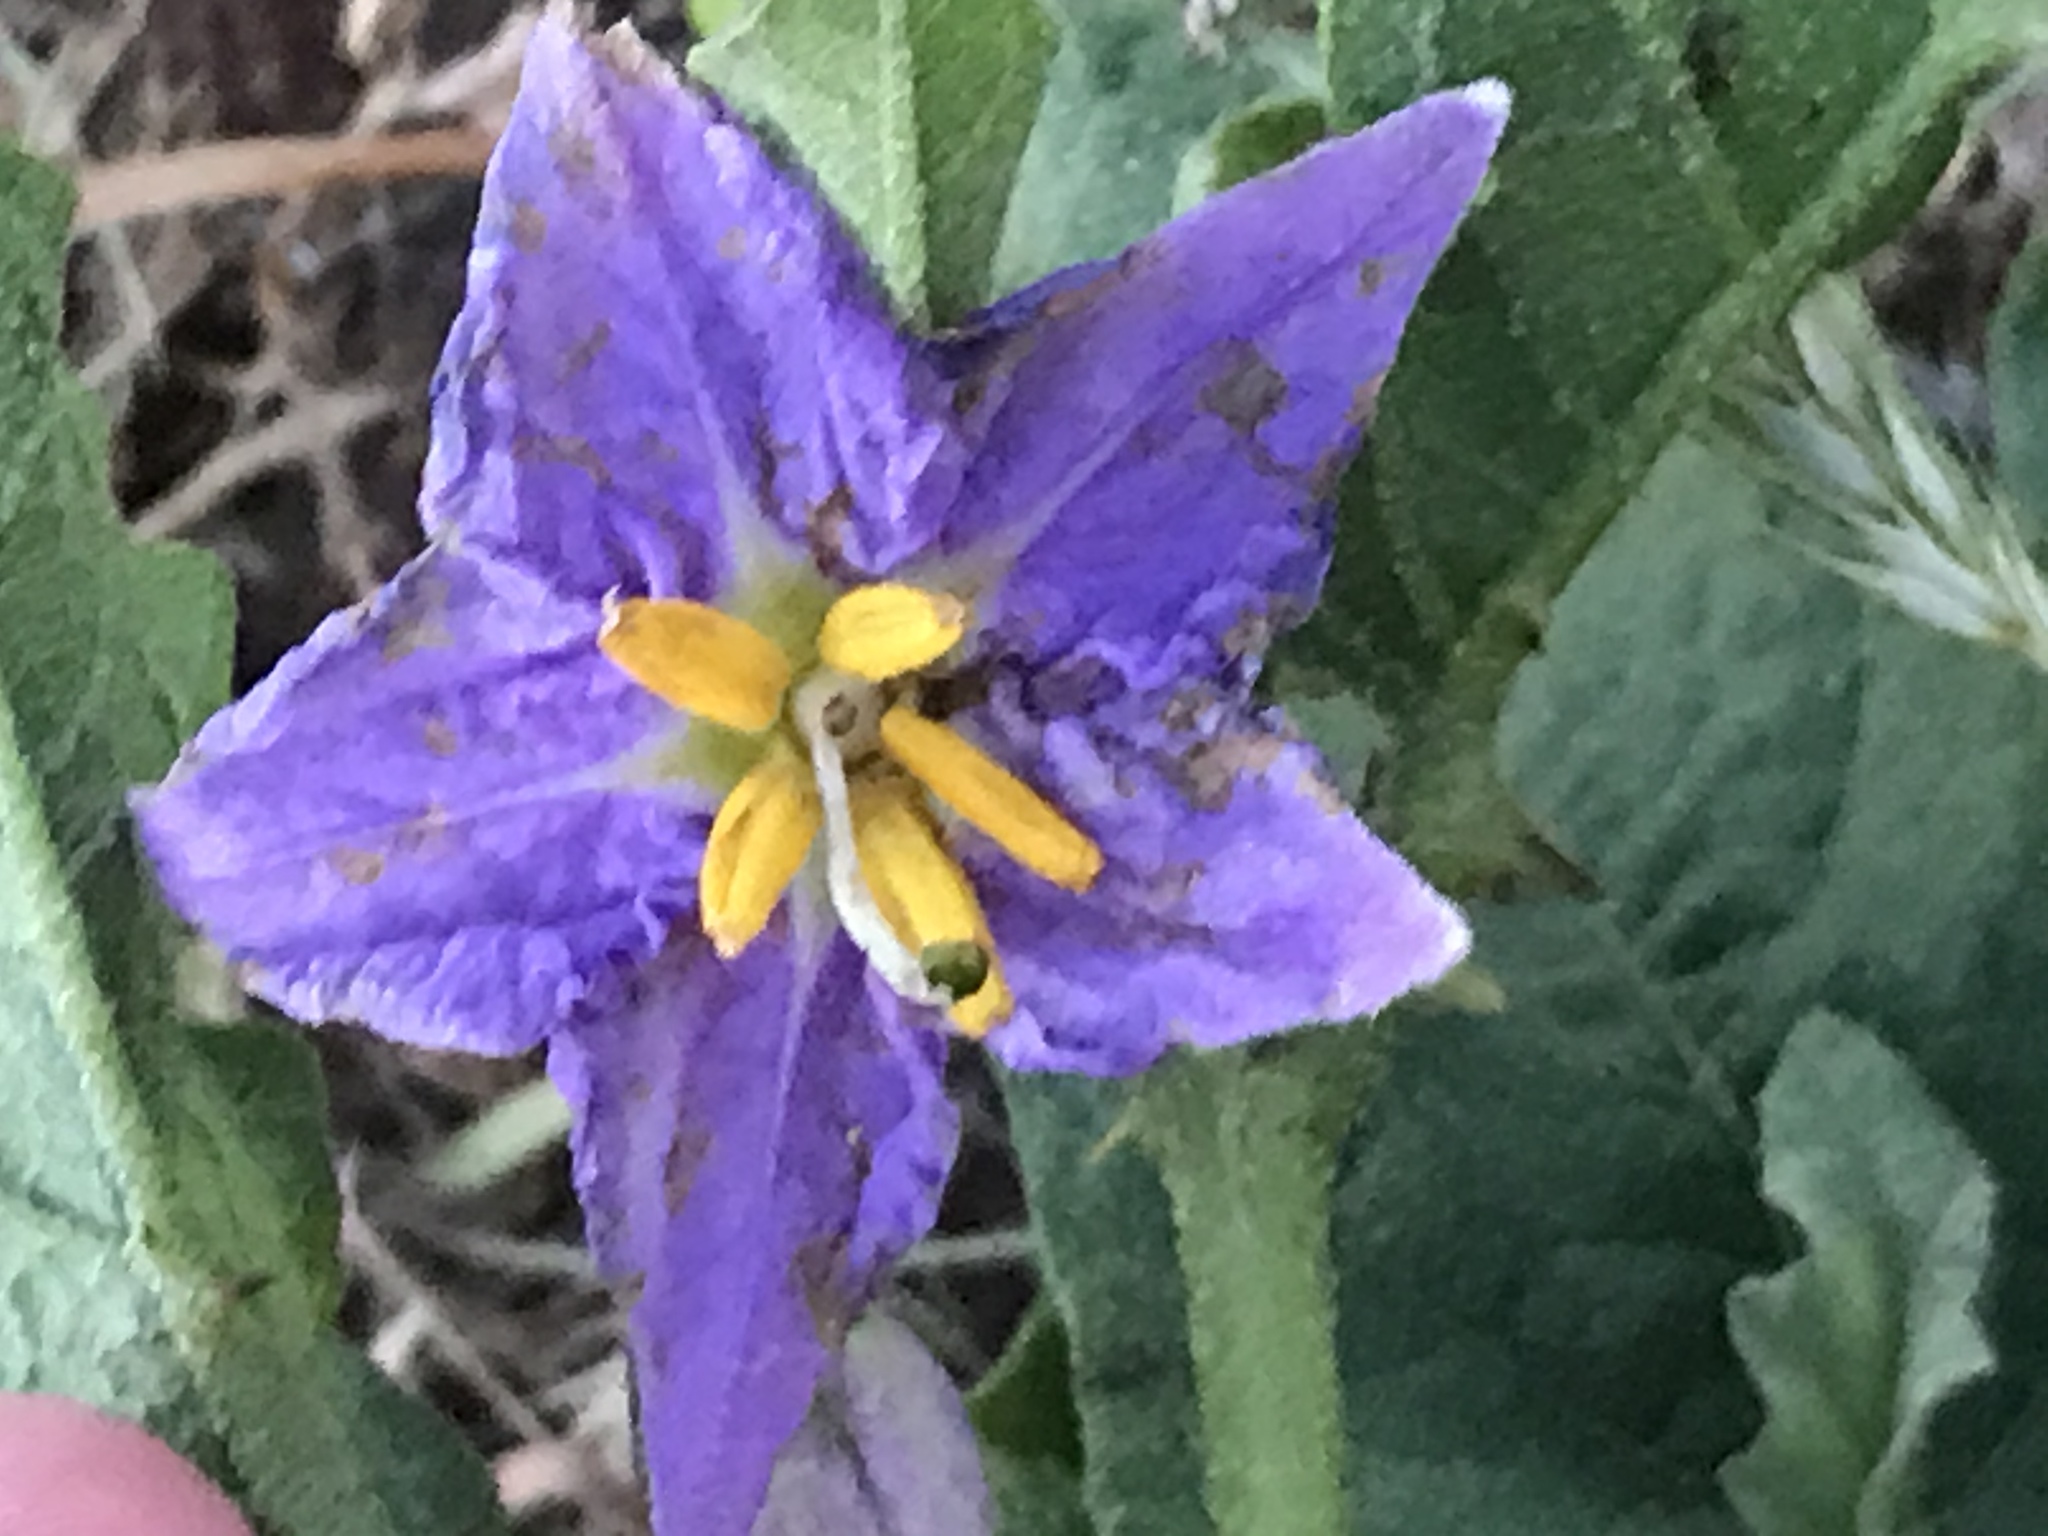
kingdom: Plantae
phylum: Tracheophyta
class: Magnoliopsida
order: Solanales
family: Solanaceae
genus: Solanum
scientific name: Solanum dimidiatum
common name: Carolina horse-nettle
